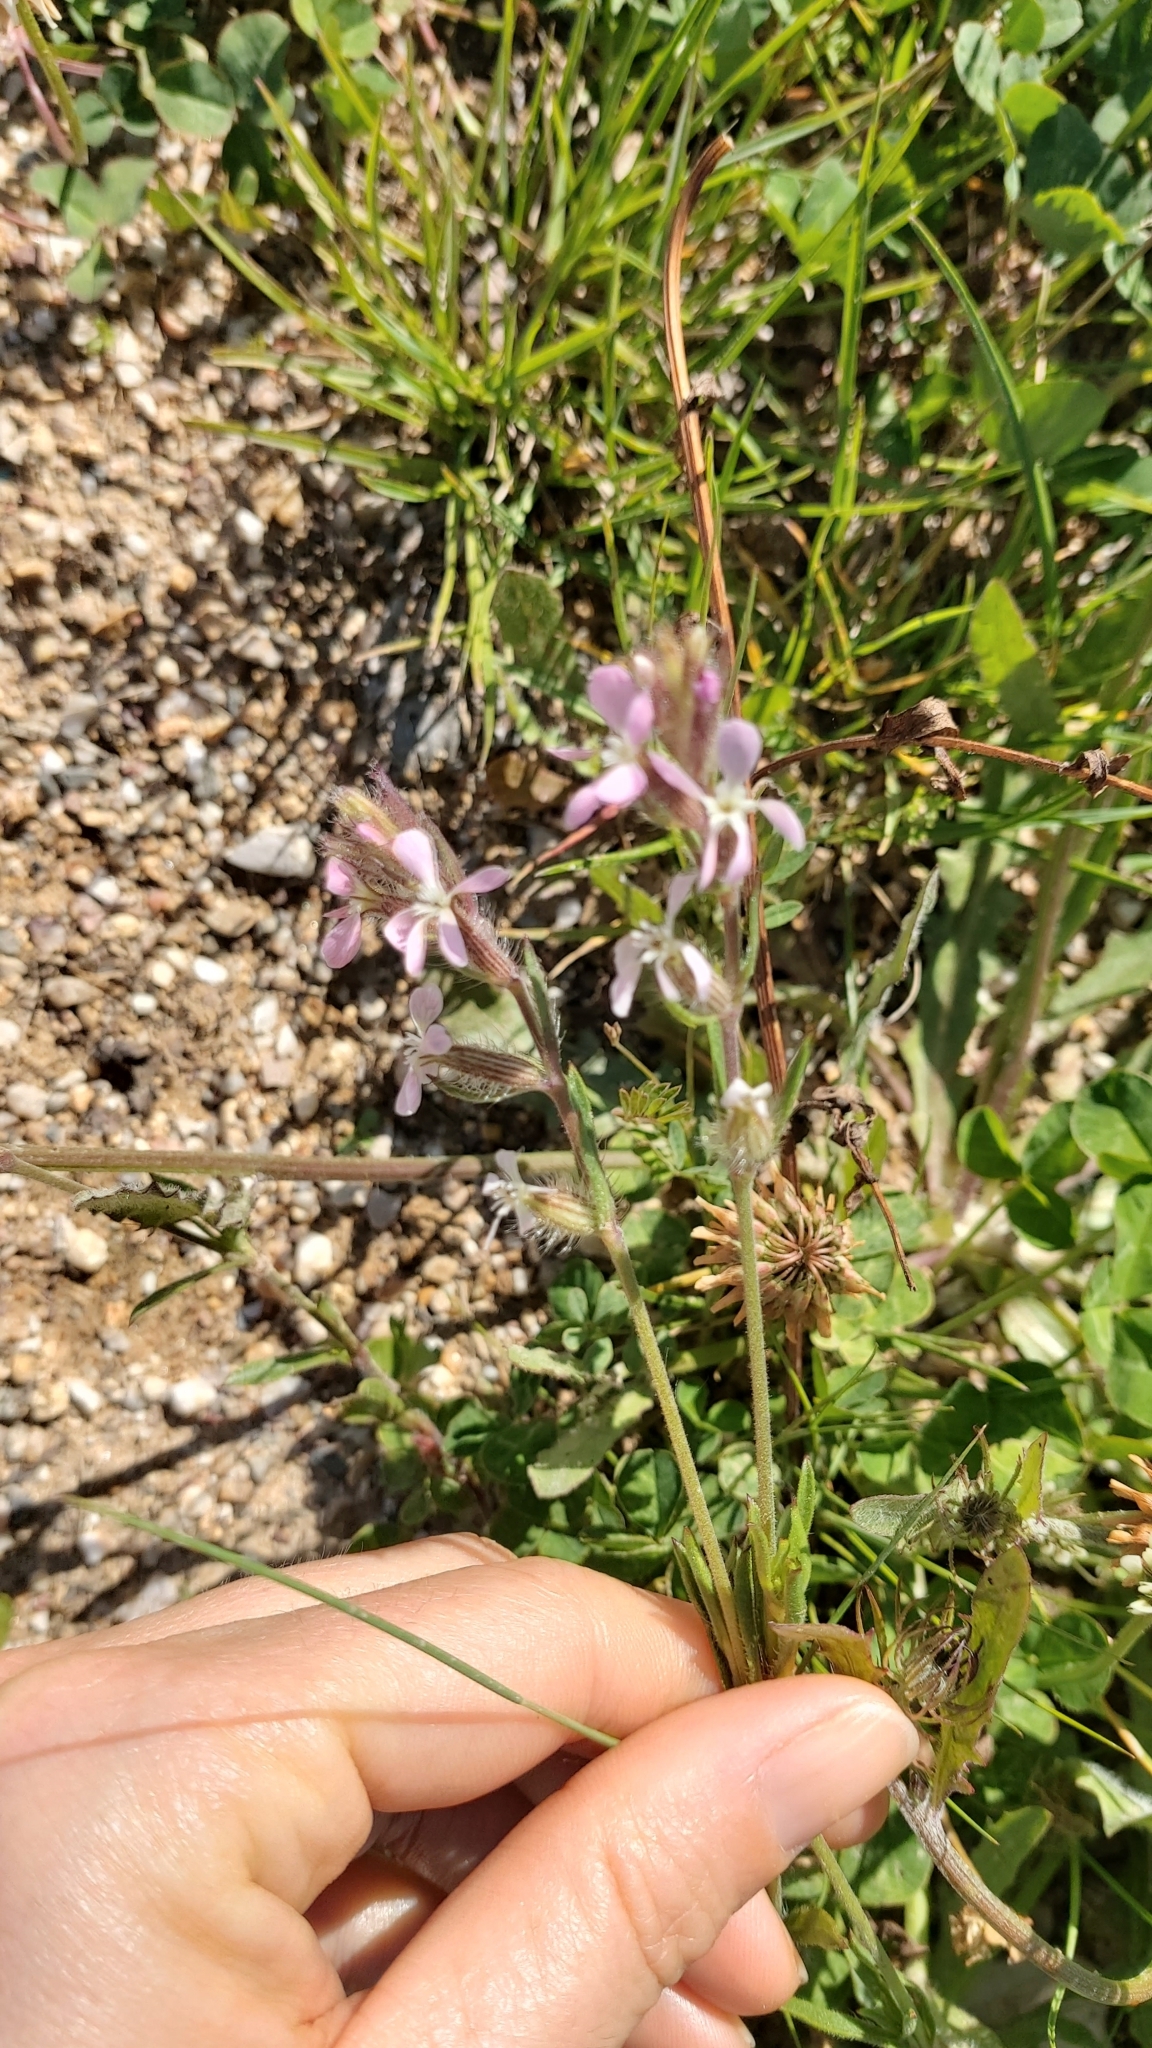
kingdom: Plantae
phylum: Tracheophyta
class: Magnoliopsida
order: Caryophyllales
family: Caryophyllaceae
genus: Silene
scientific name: Silene gallica
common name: Small-flowered catchfly
